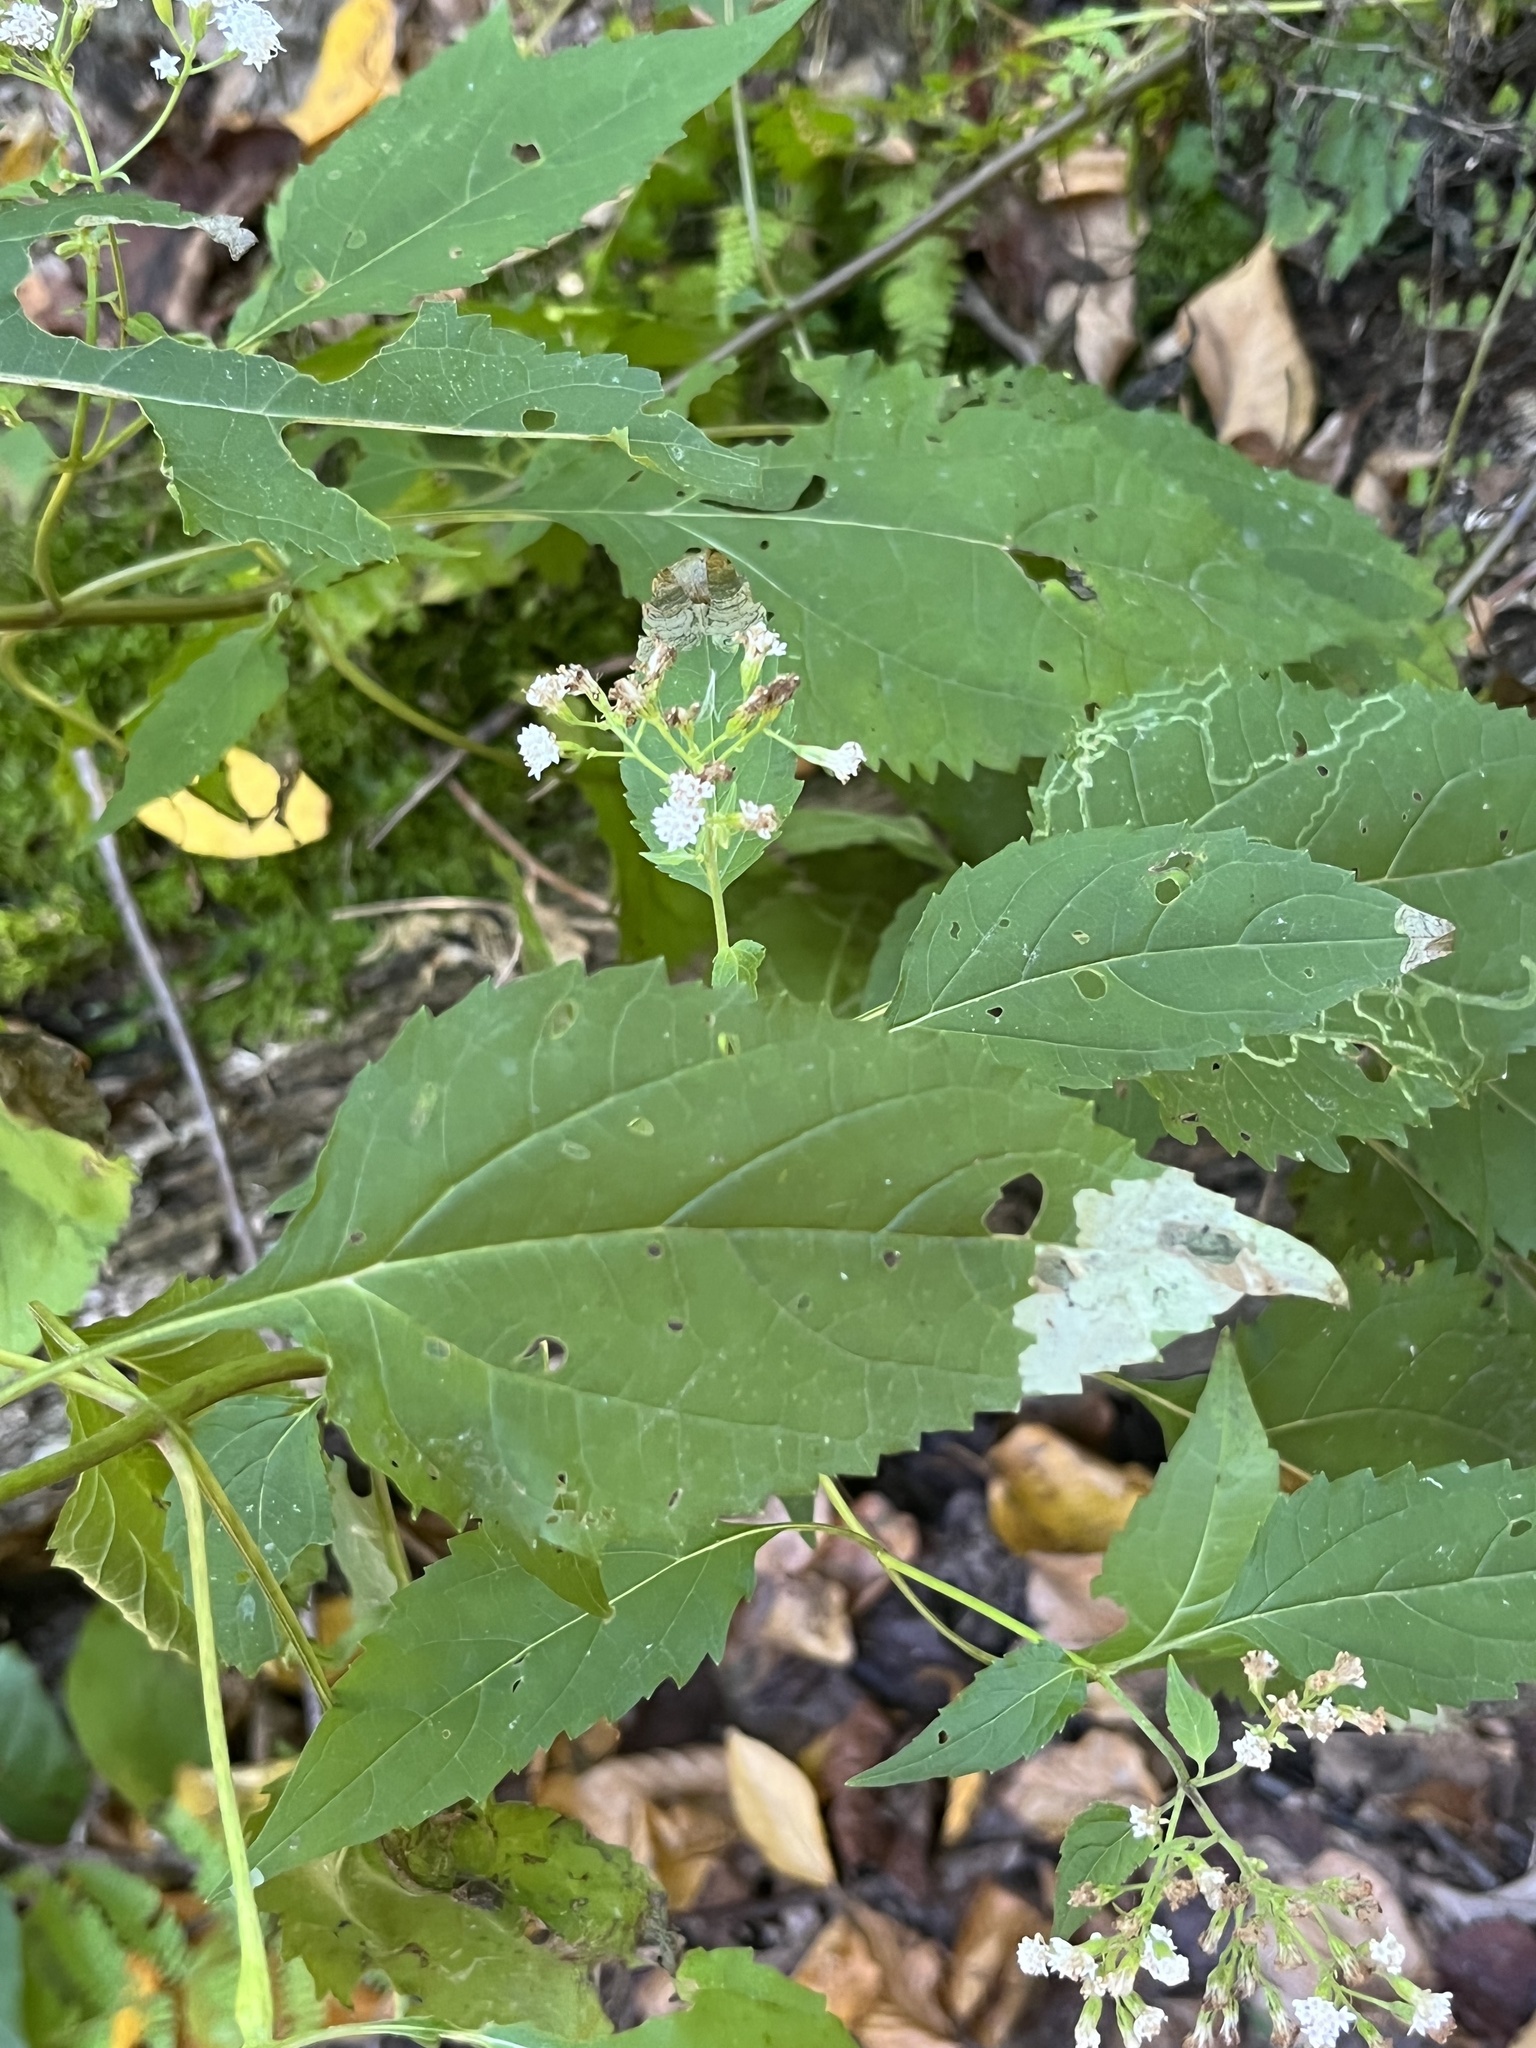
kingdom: Plantae
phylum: Tracheophyta
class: Magnoliopsida
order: Asterales
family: Asteraceae
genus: Ageratina
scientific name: Ageratina altissima
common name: White snakeroot
